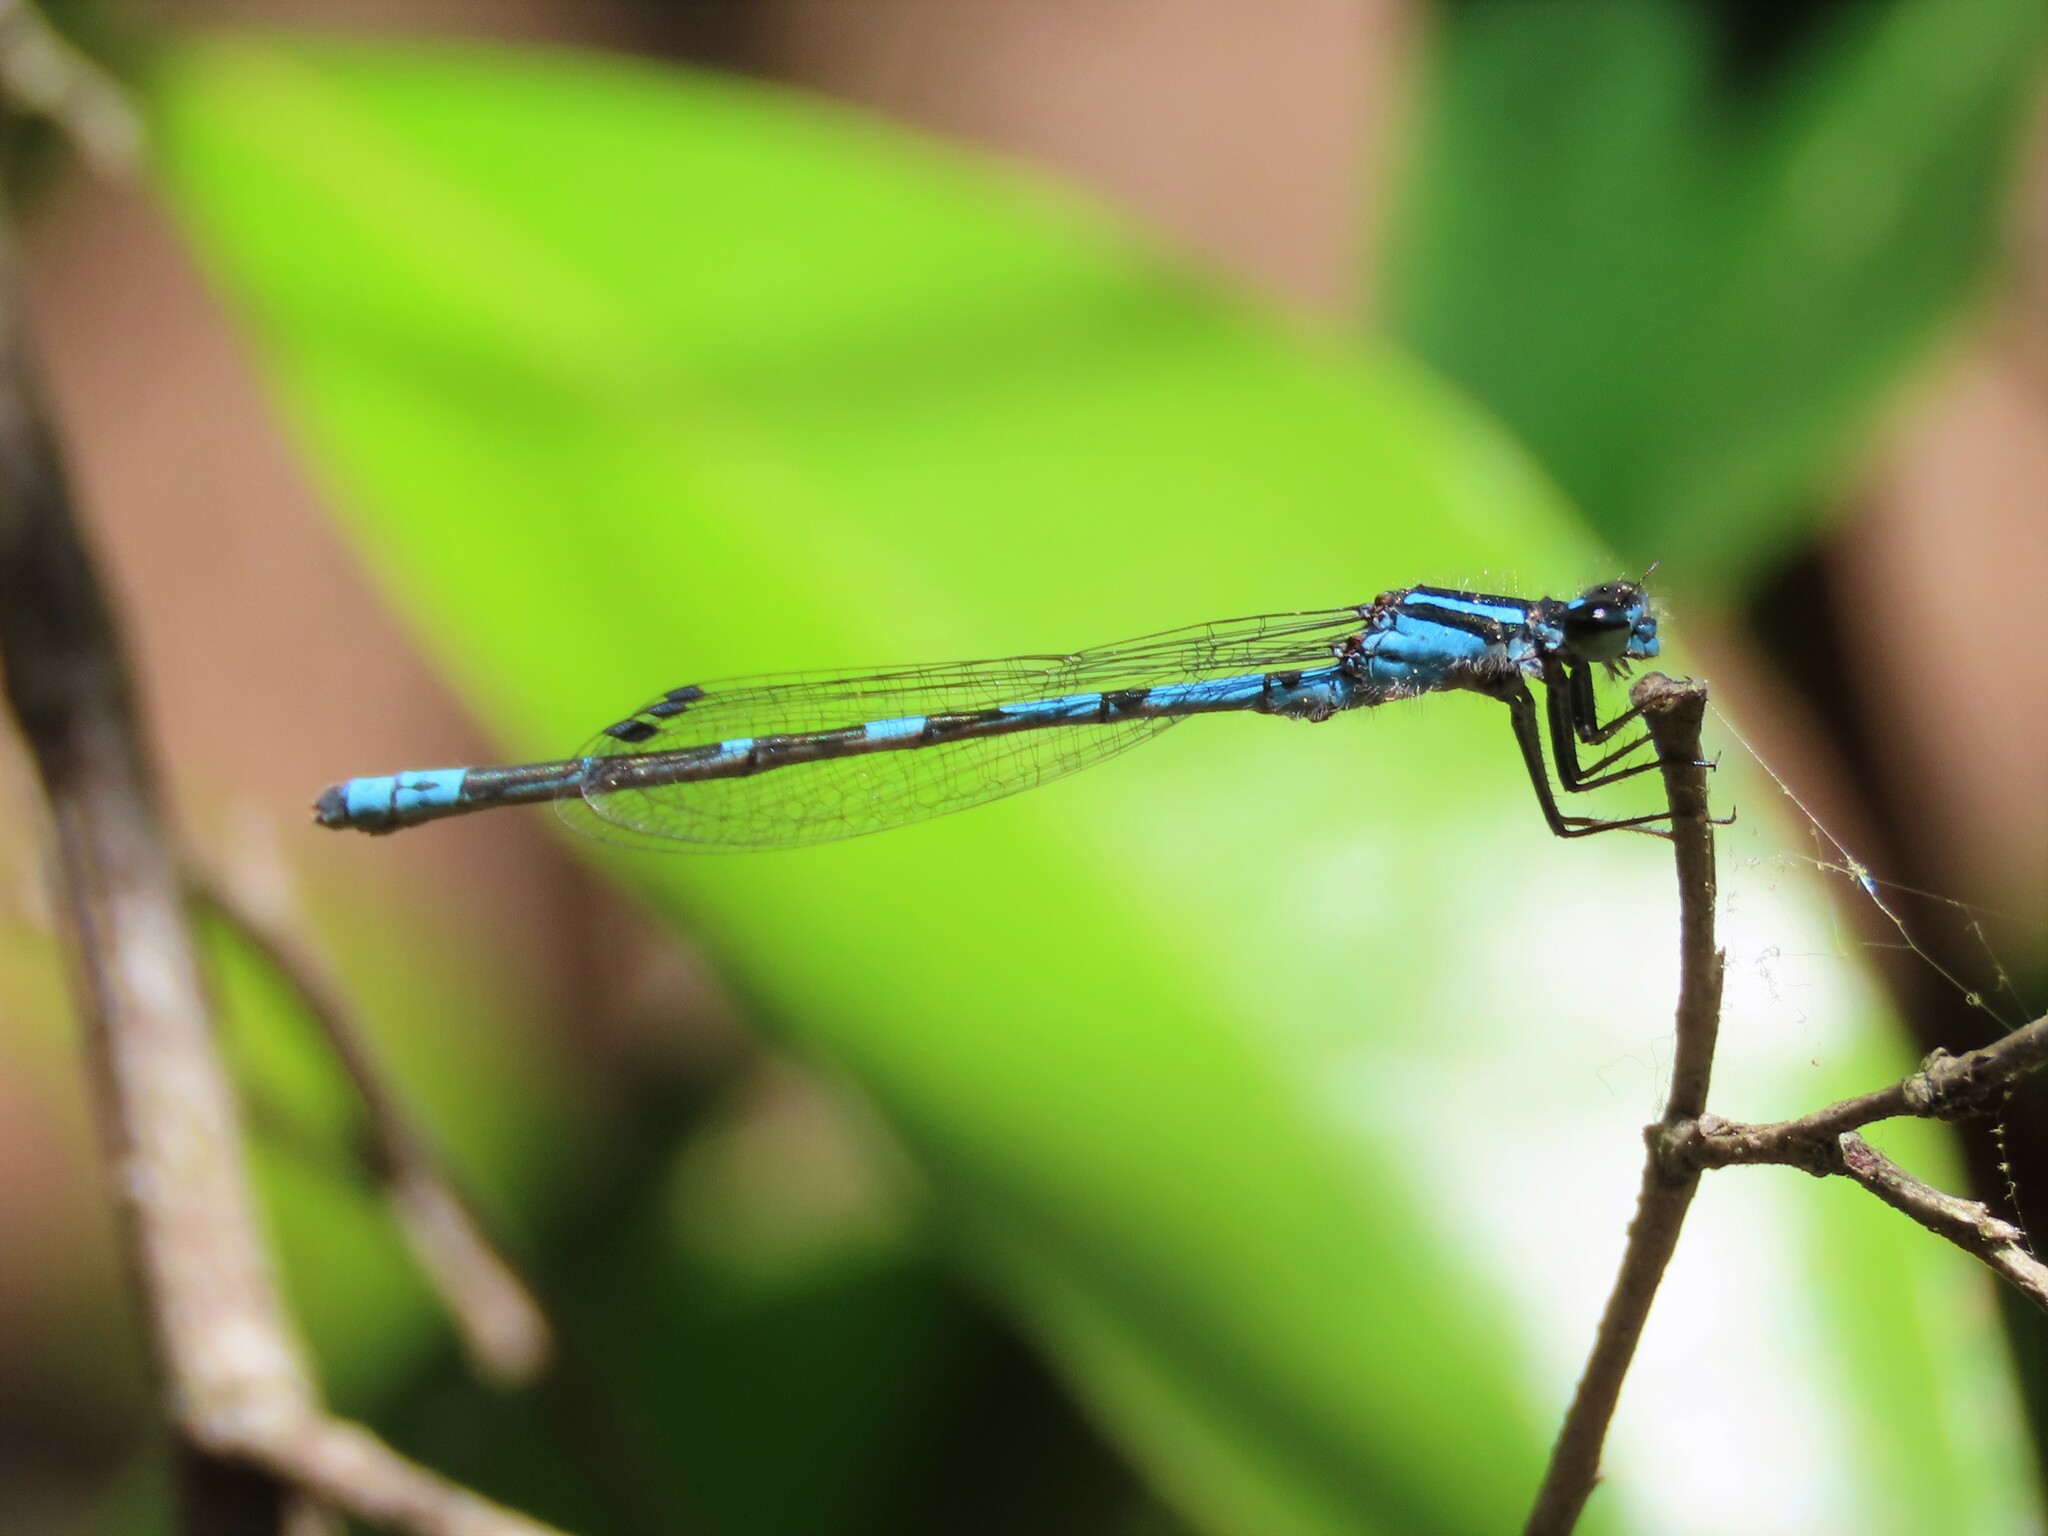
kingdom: Animalia
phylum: Arthropoda
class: Insecta
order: Odonata
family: Coenagrionidae
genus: Enallagma
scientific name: Enallagma recurvatum
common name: Pine barrens bluet
